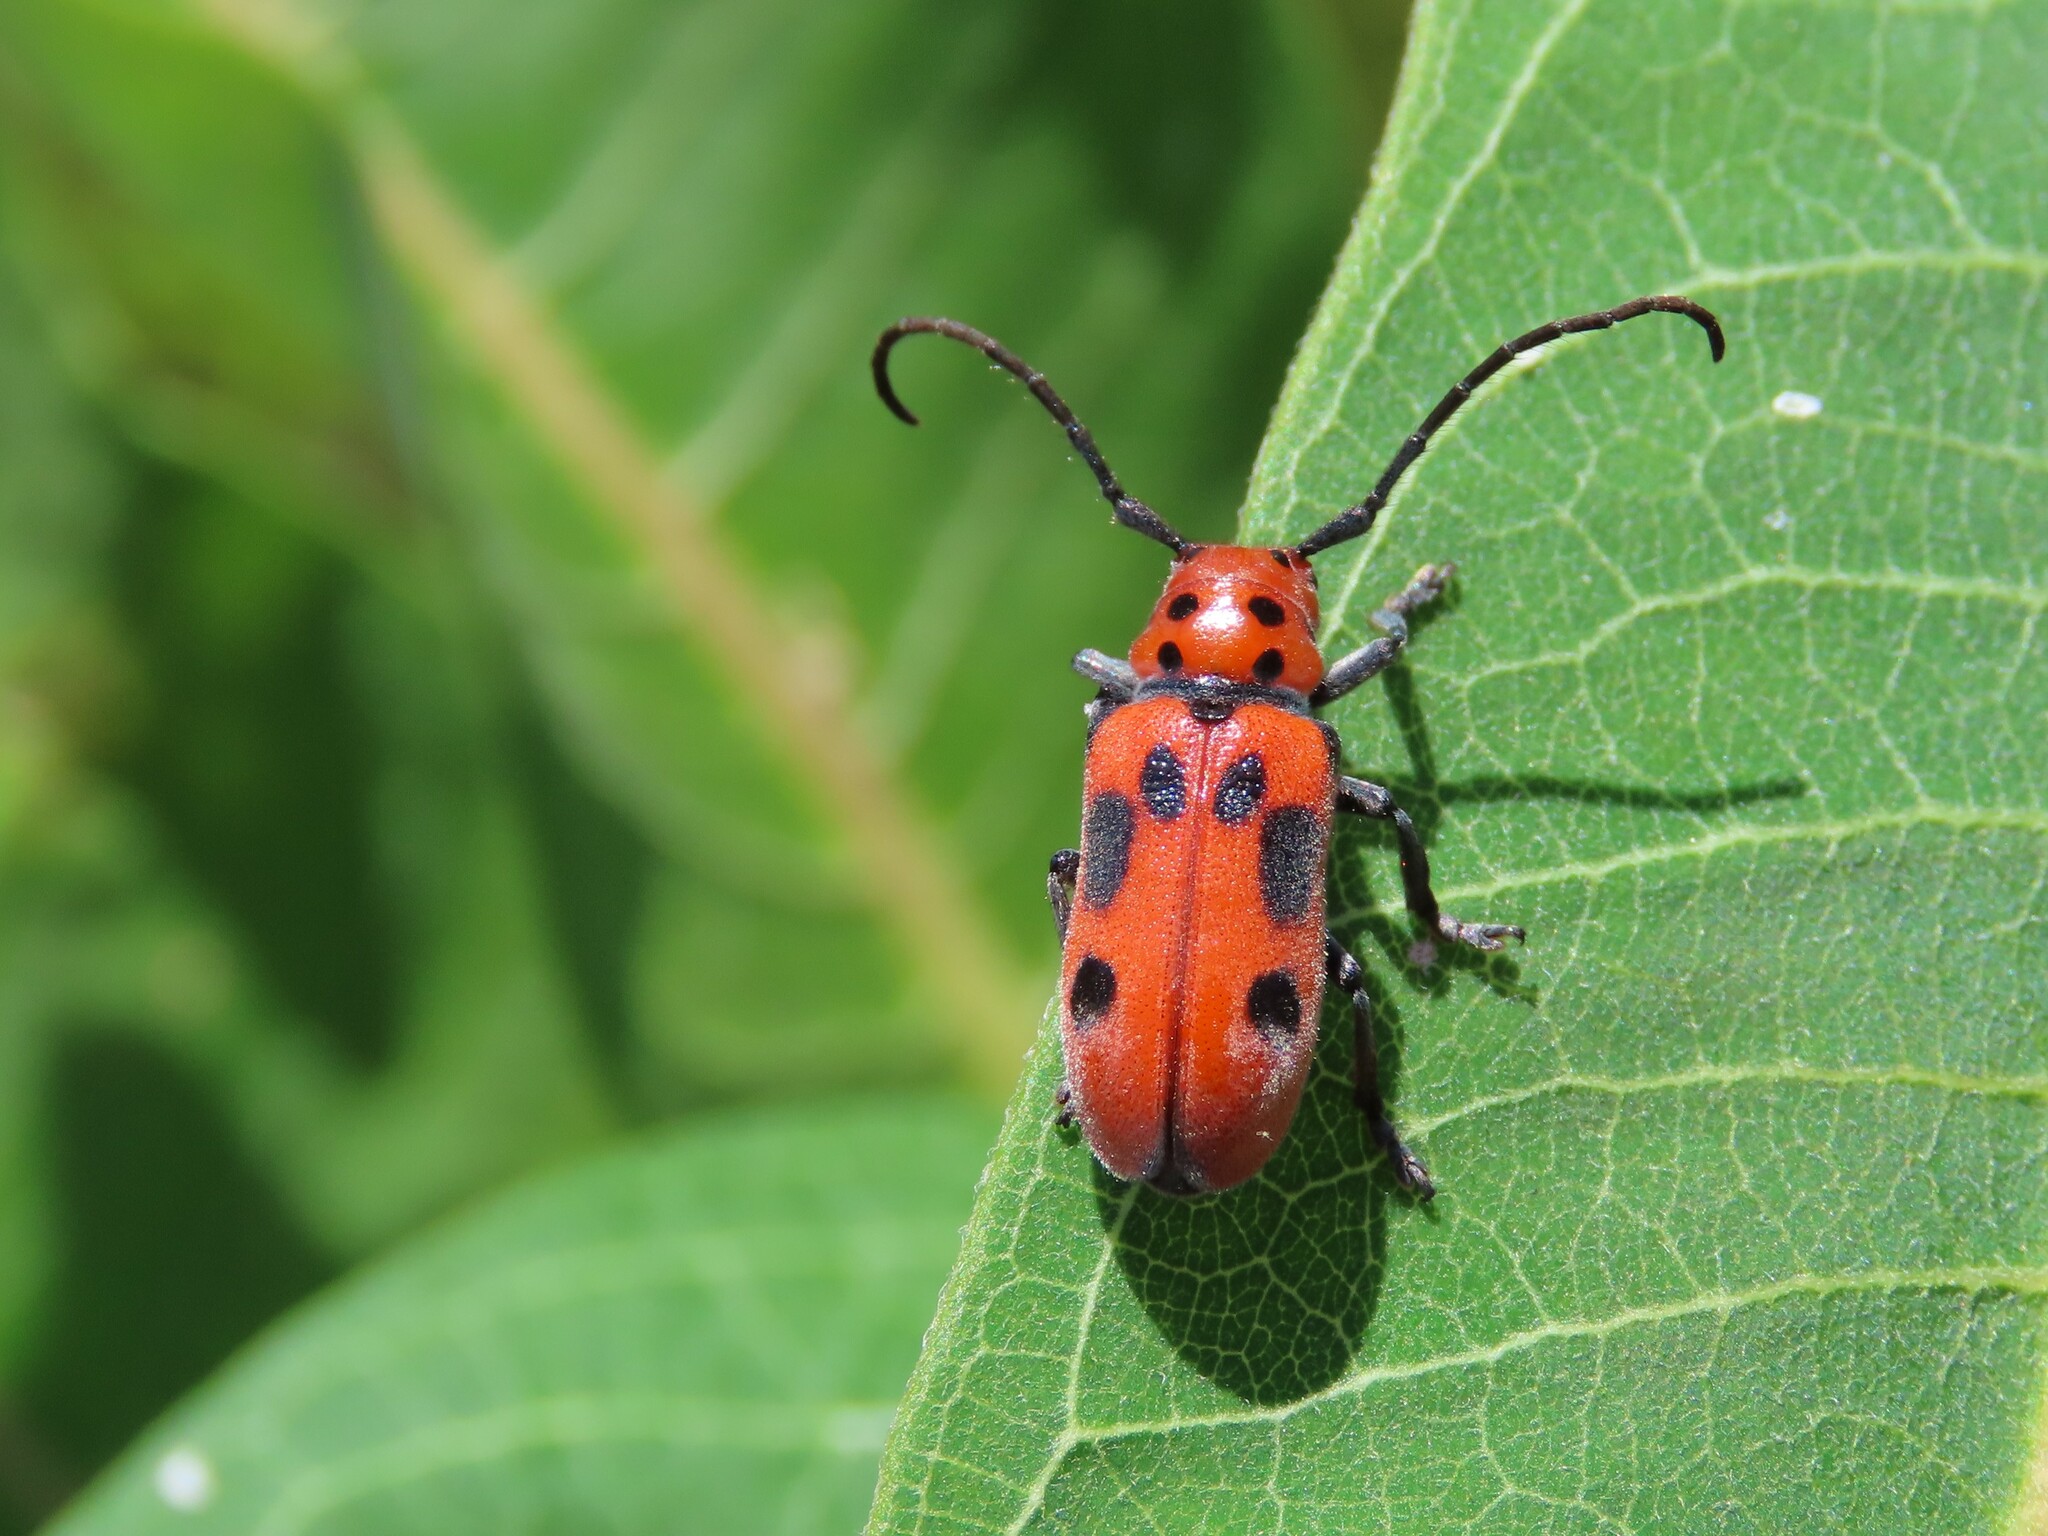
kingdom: Animalia
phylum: Arthropoda
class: Insecta
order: Coleoptera
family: Cerambycidae
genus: Tetraopes
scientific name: Tetraopes tetrophthalmus
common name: Red milkweed beetle
